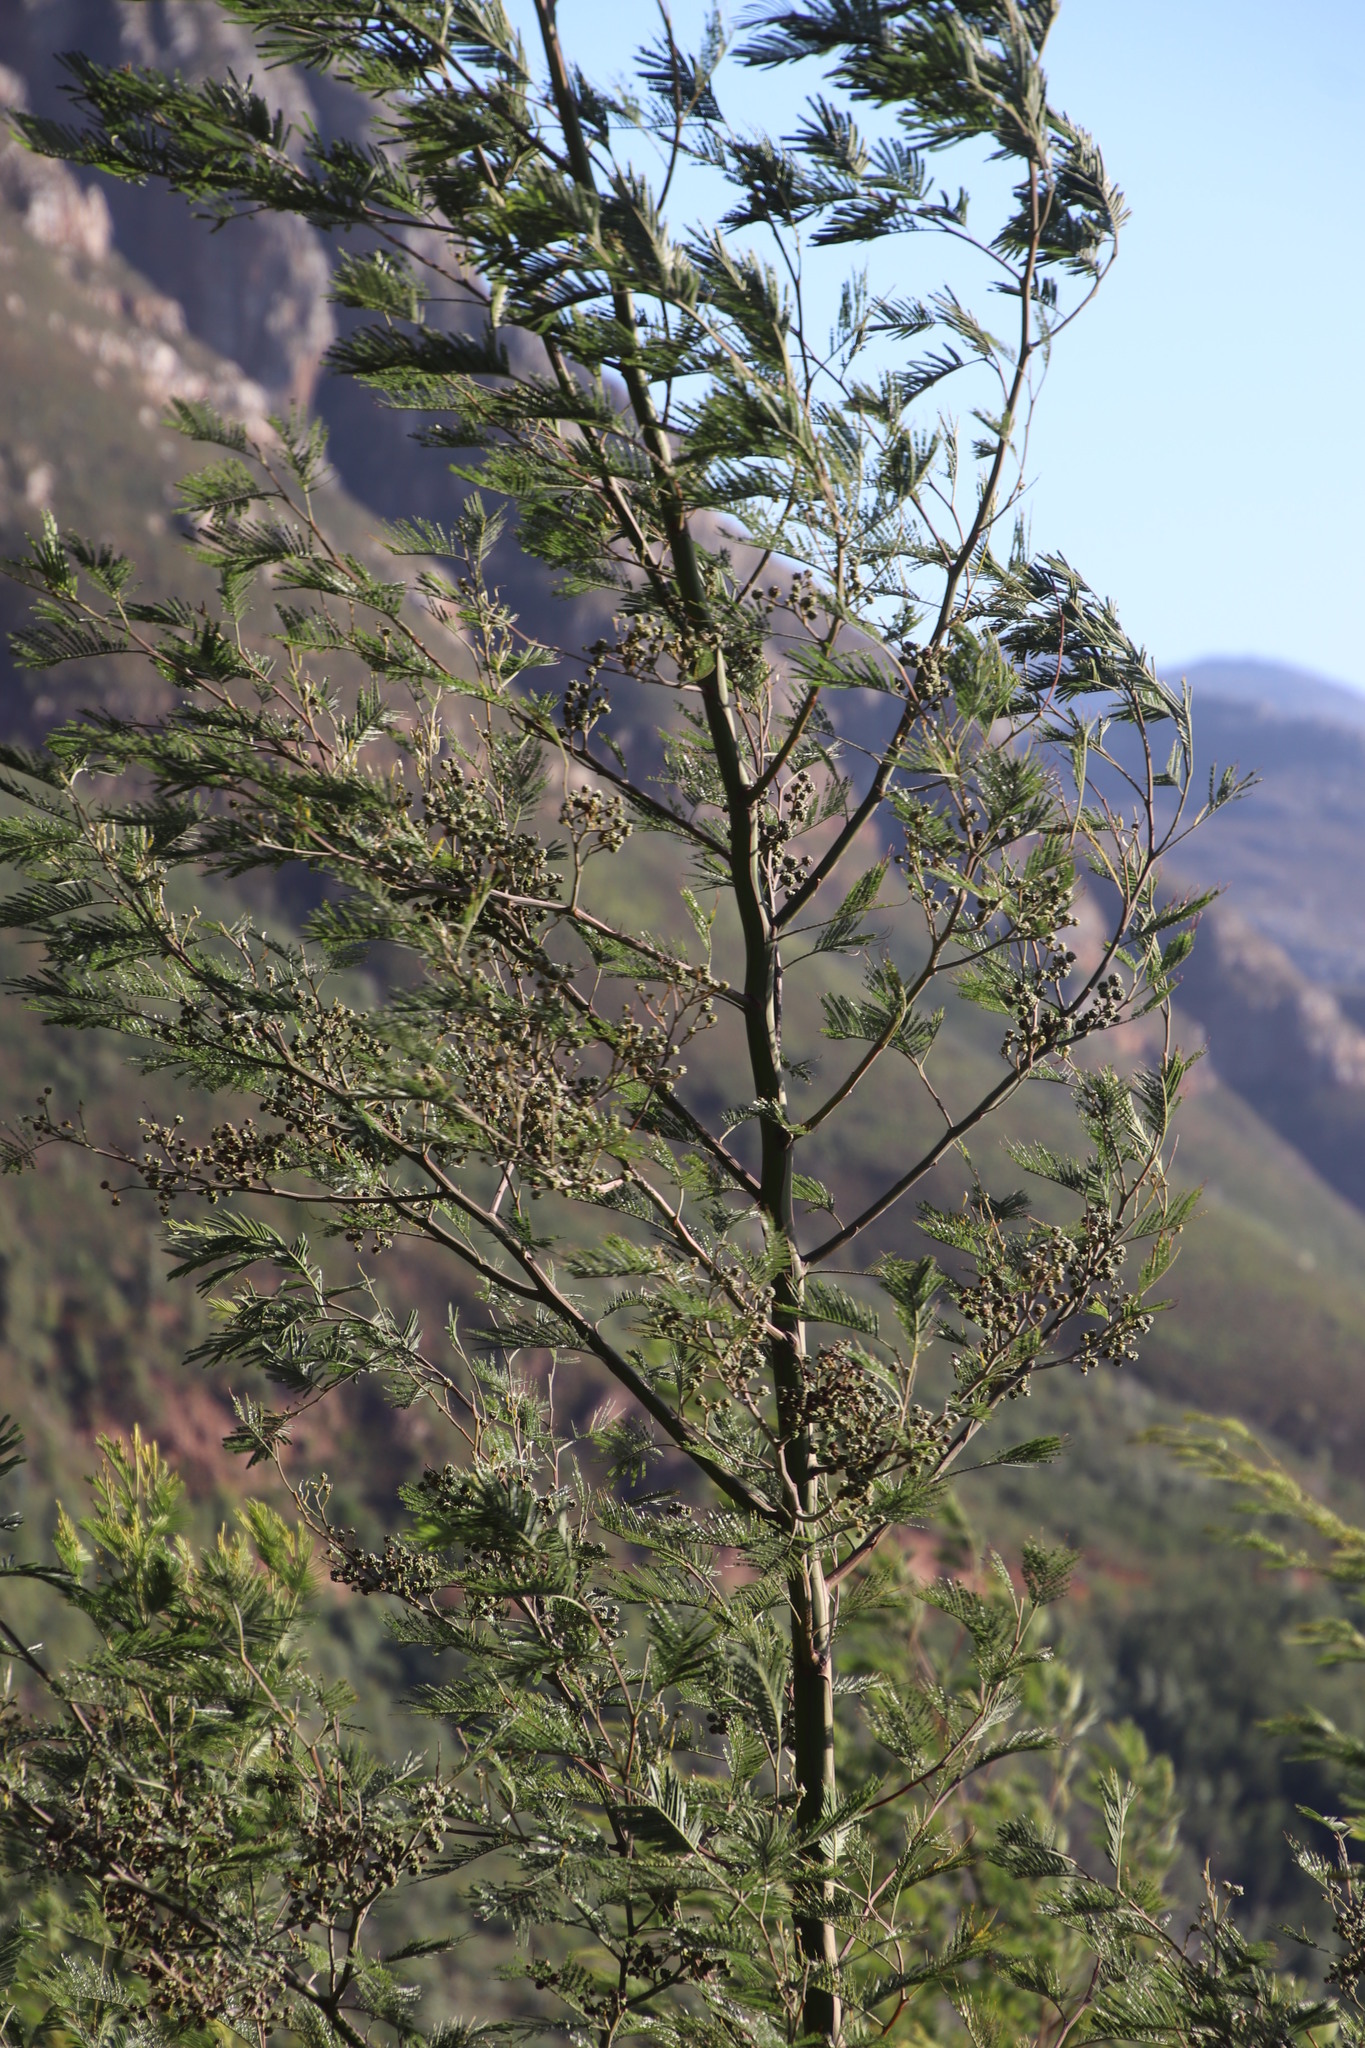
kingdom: Plantae
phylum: Tracheophyta
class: Magnoliopsida
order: Fabales
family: Fabaceae
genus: Acacia
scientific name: Acacia mearnsii
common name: Black wattle
